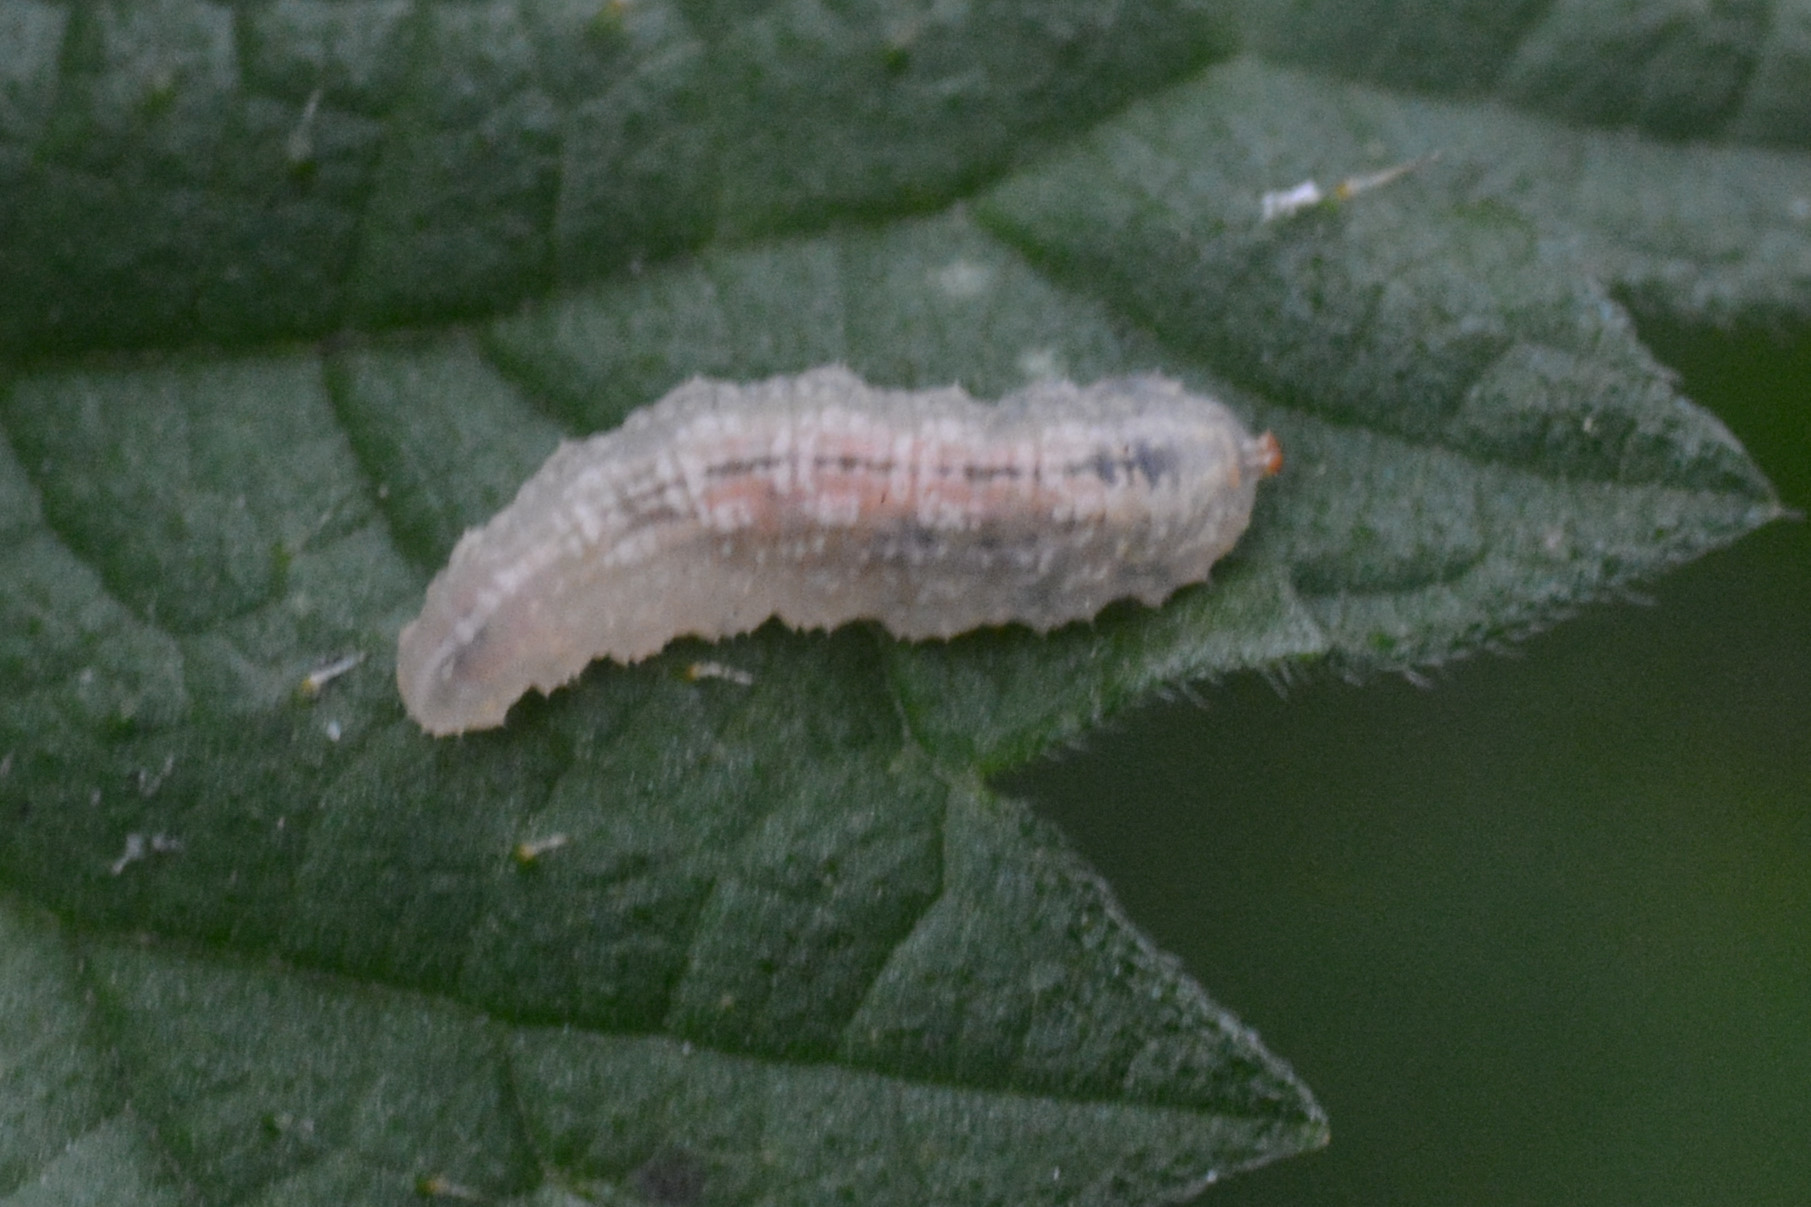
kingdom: Animalia
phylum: Arthropoda
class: Insecta
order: Diptera
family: Syrphidae
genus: Syrphus
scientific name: Syrphus
